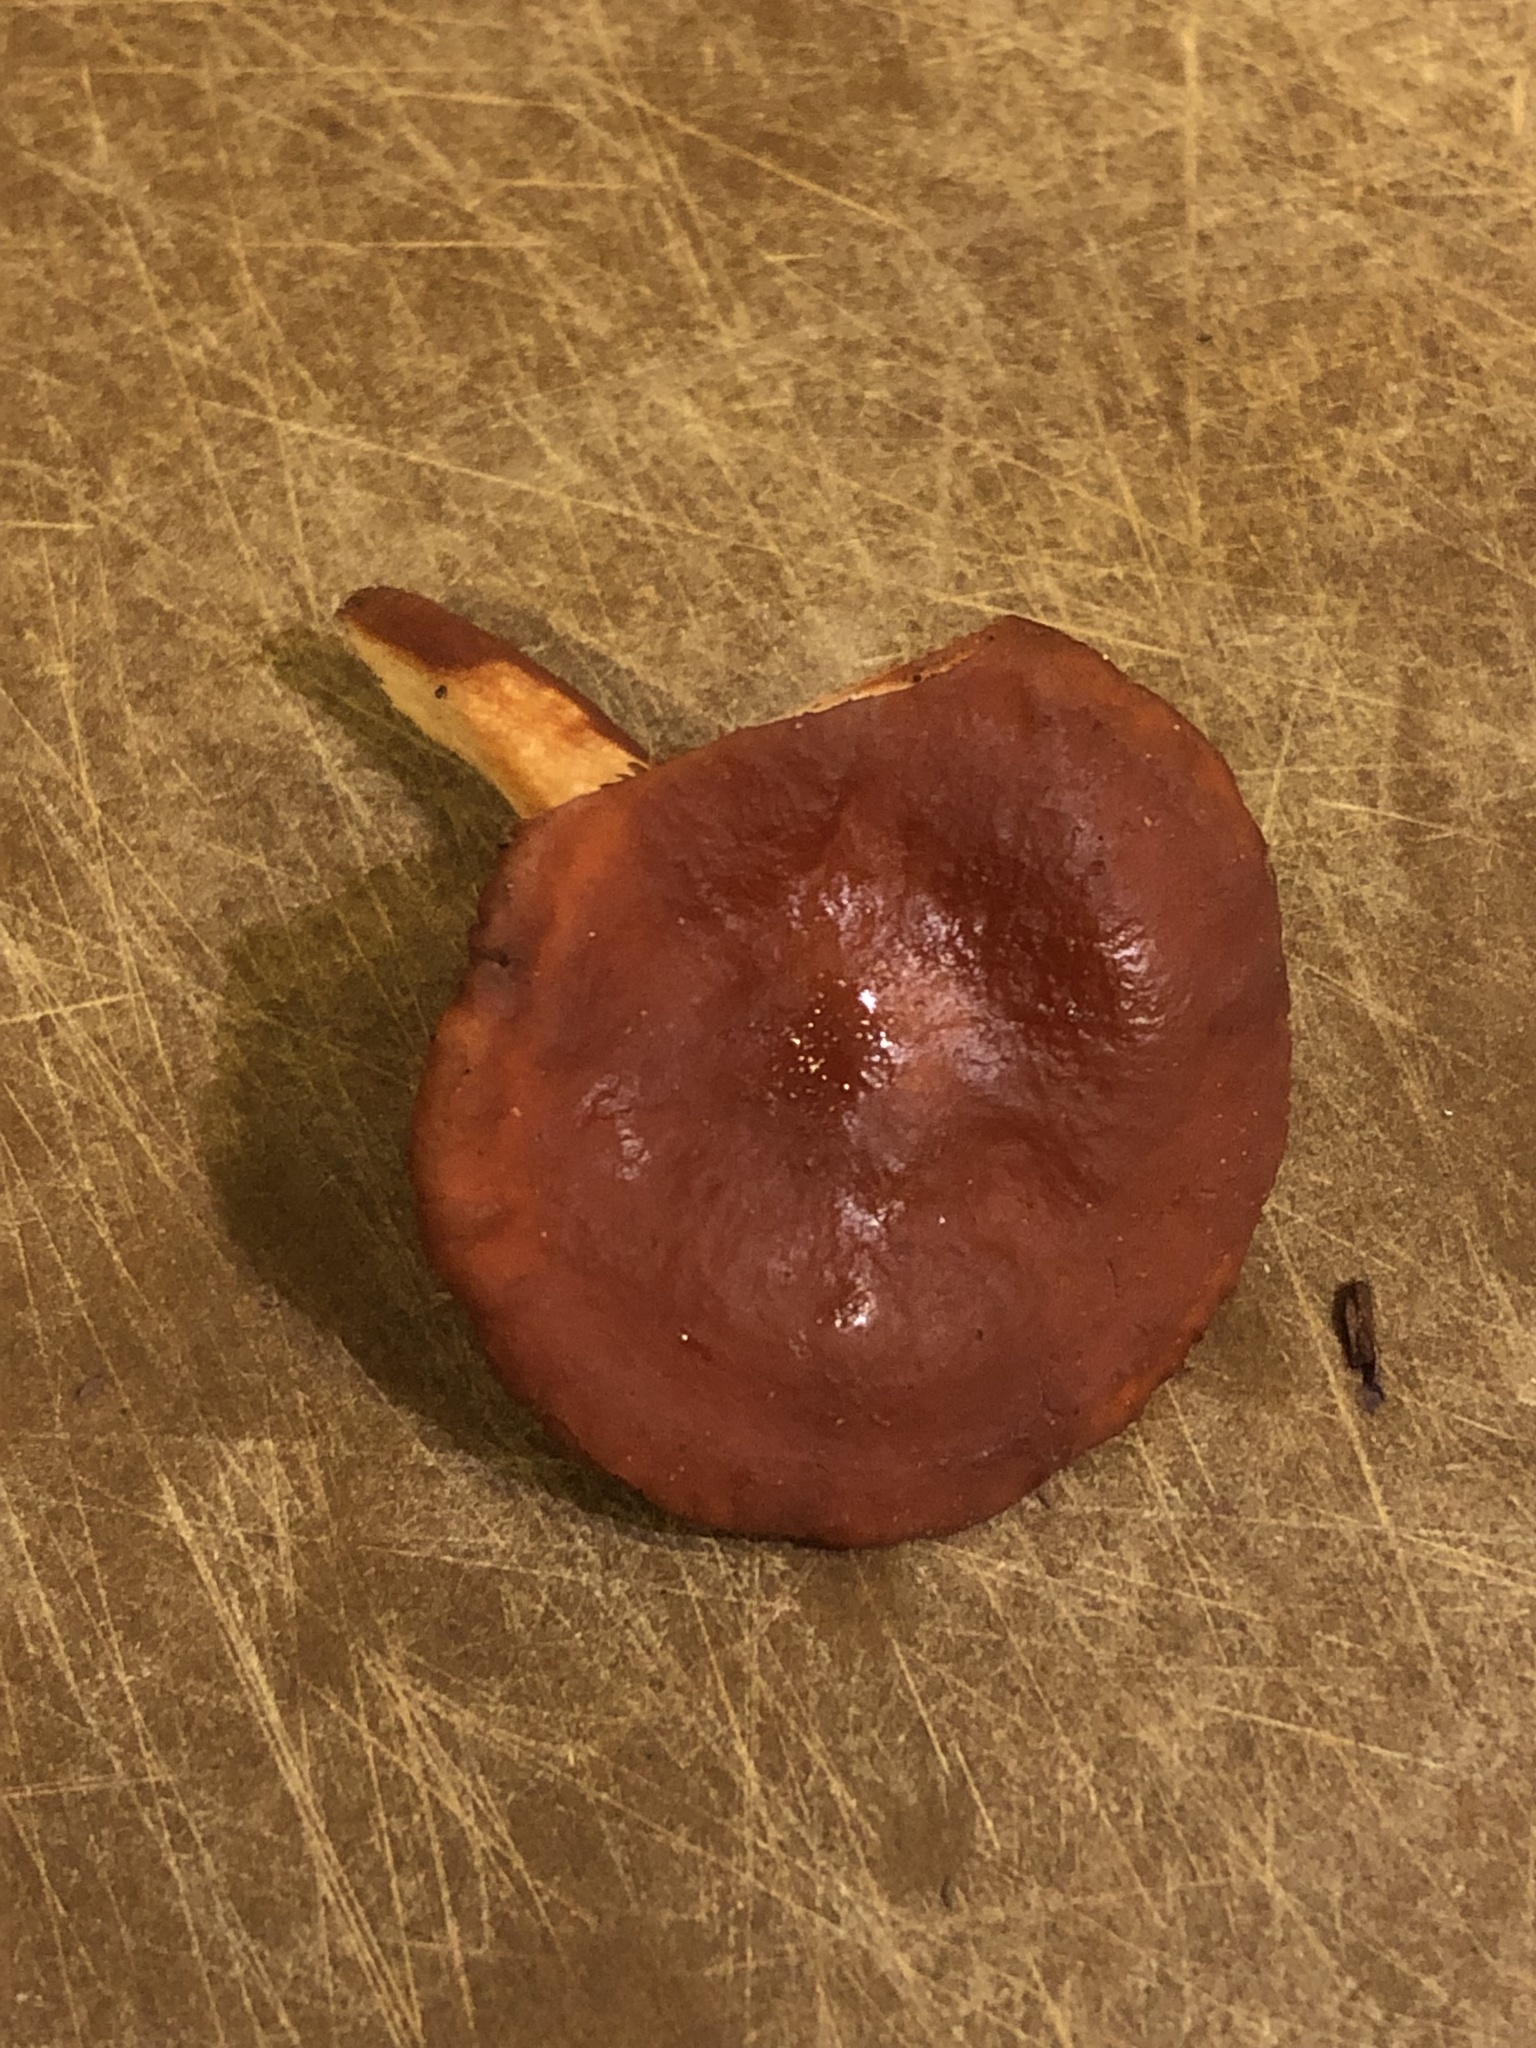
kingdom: Fungi
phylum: Basidiomycota
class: Agaricomycetes
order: Russulales
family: Russulaceae
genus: Lactarius
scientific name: Lactarius rufulus
